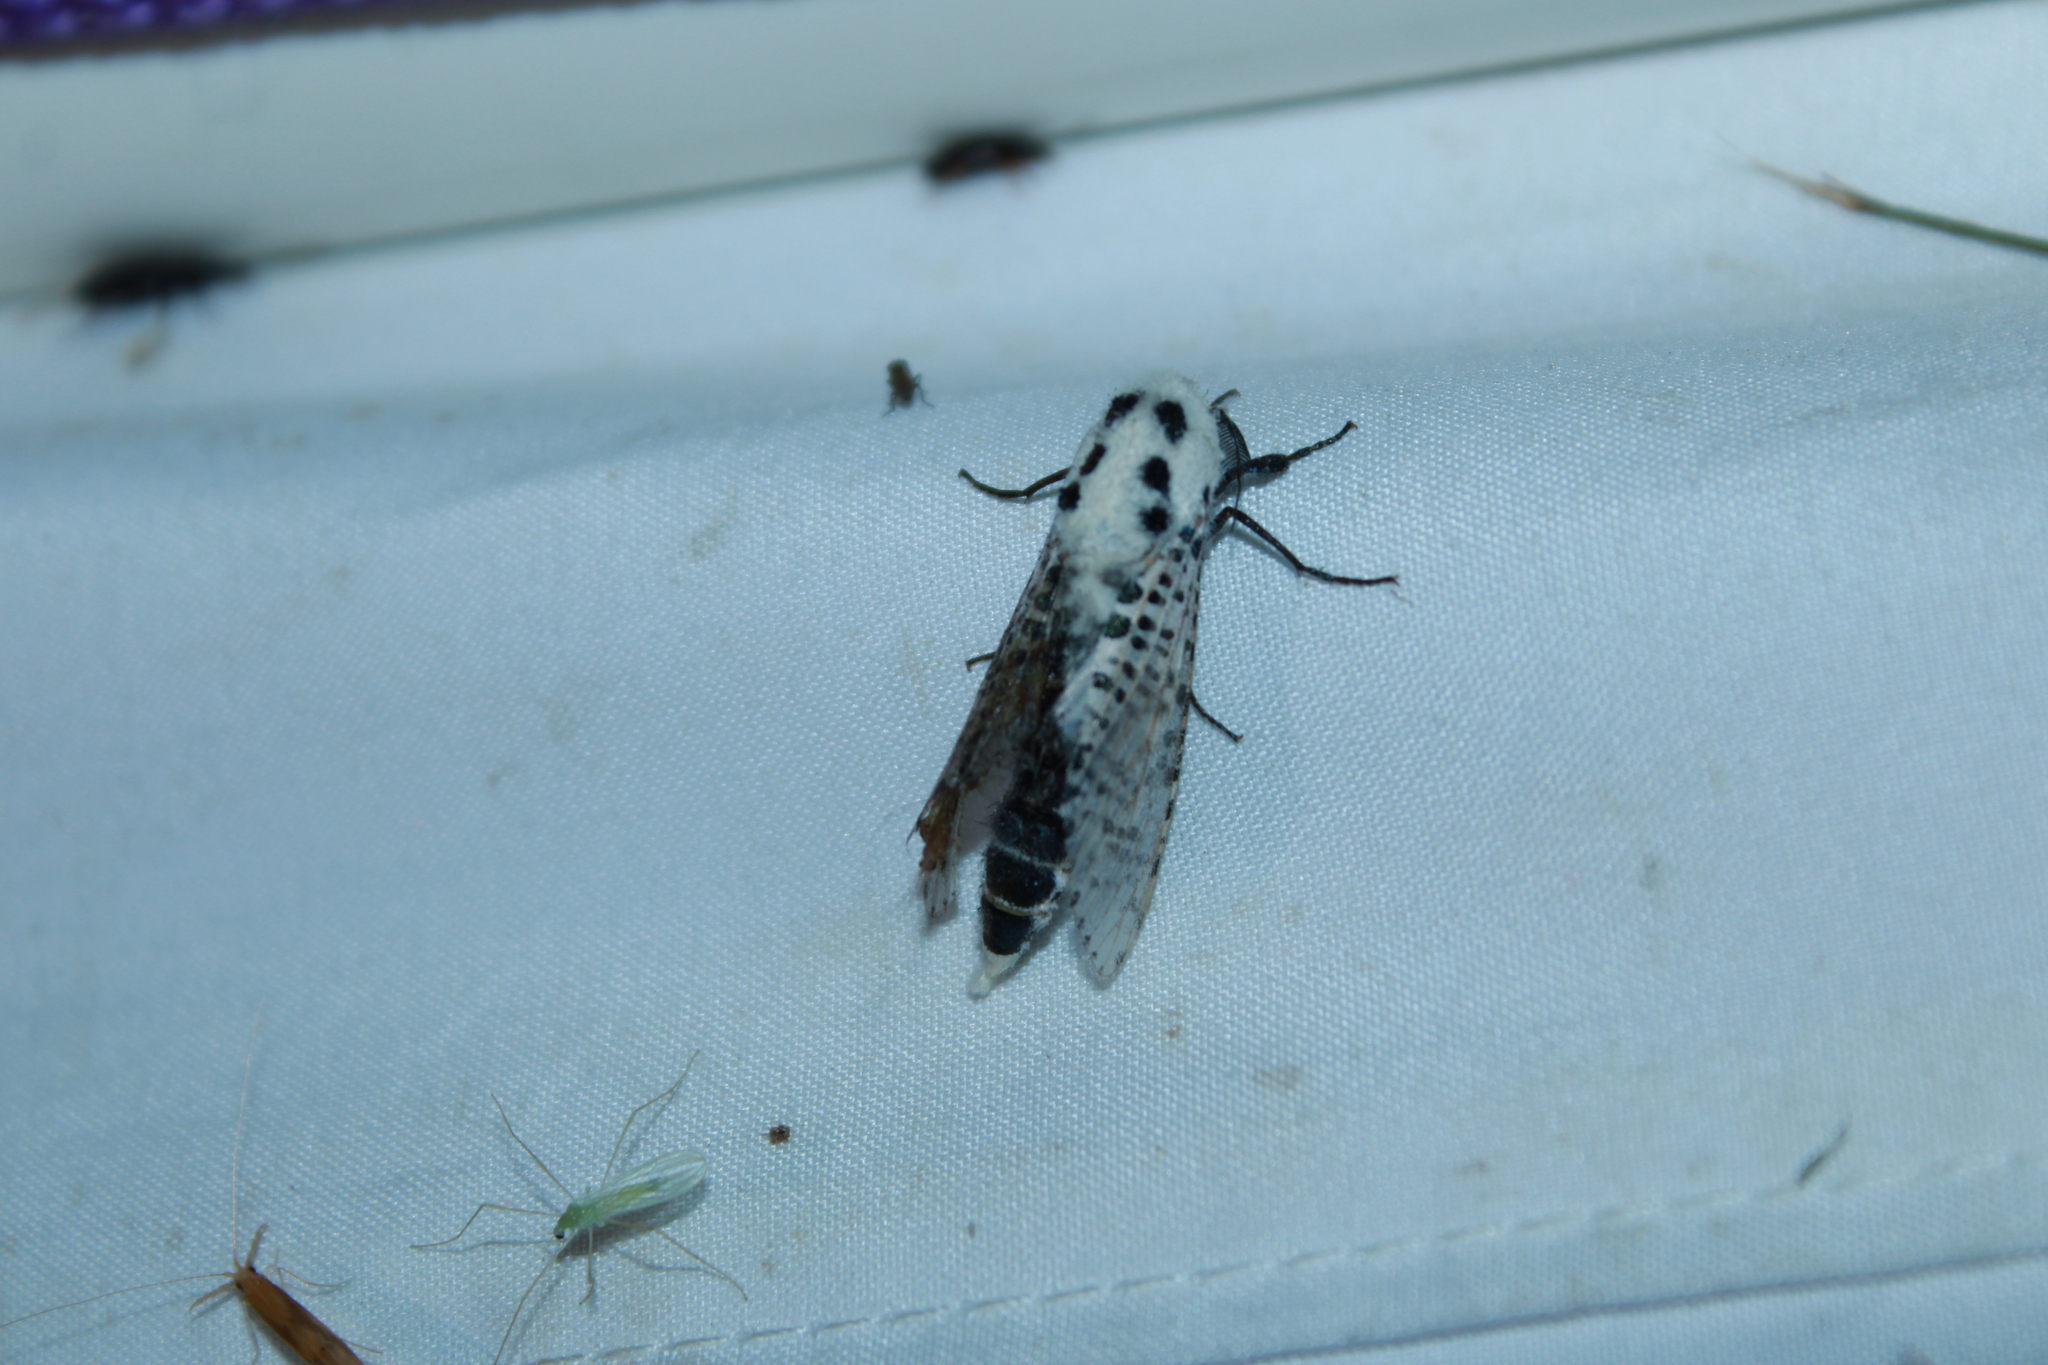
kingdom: Animalia
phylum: Arthropoda
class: Insecta
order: Lepidoptera
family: Cossidae
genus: Zeuzera
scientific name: Zeuzera pyrina
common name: Leopard moth
